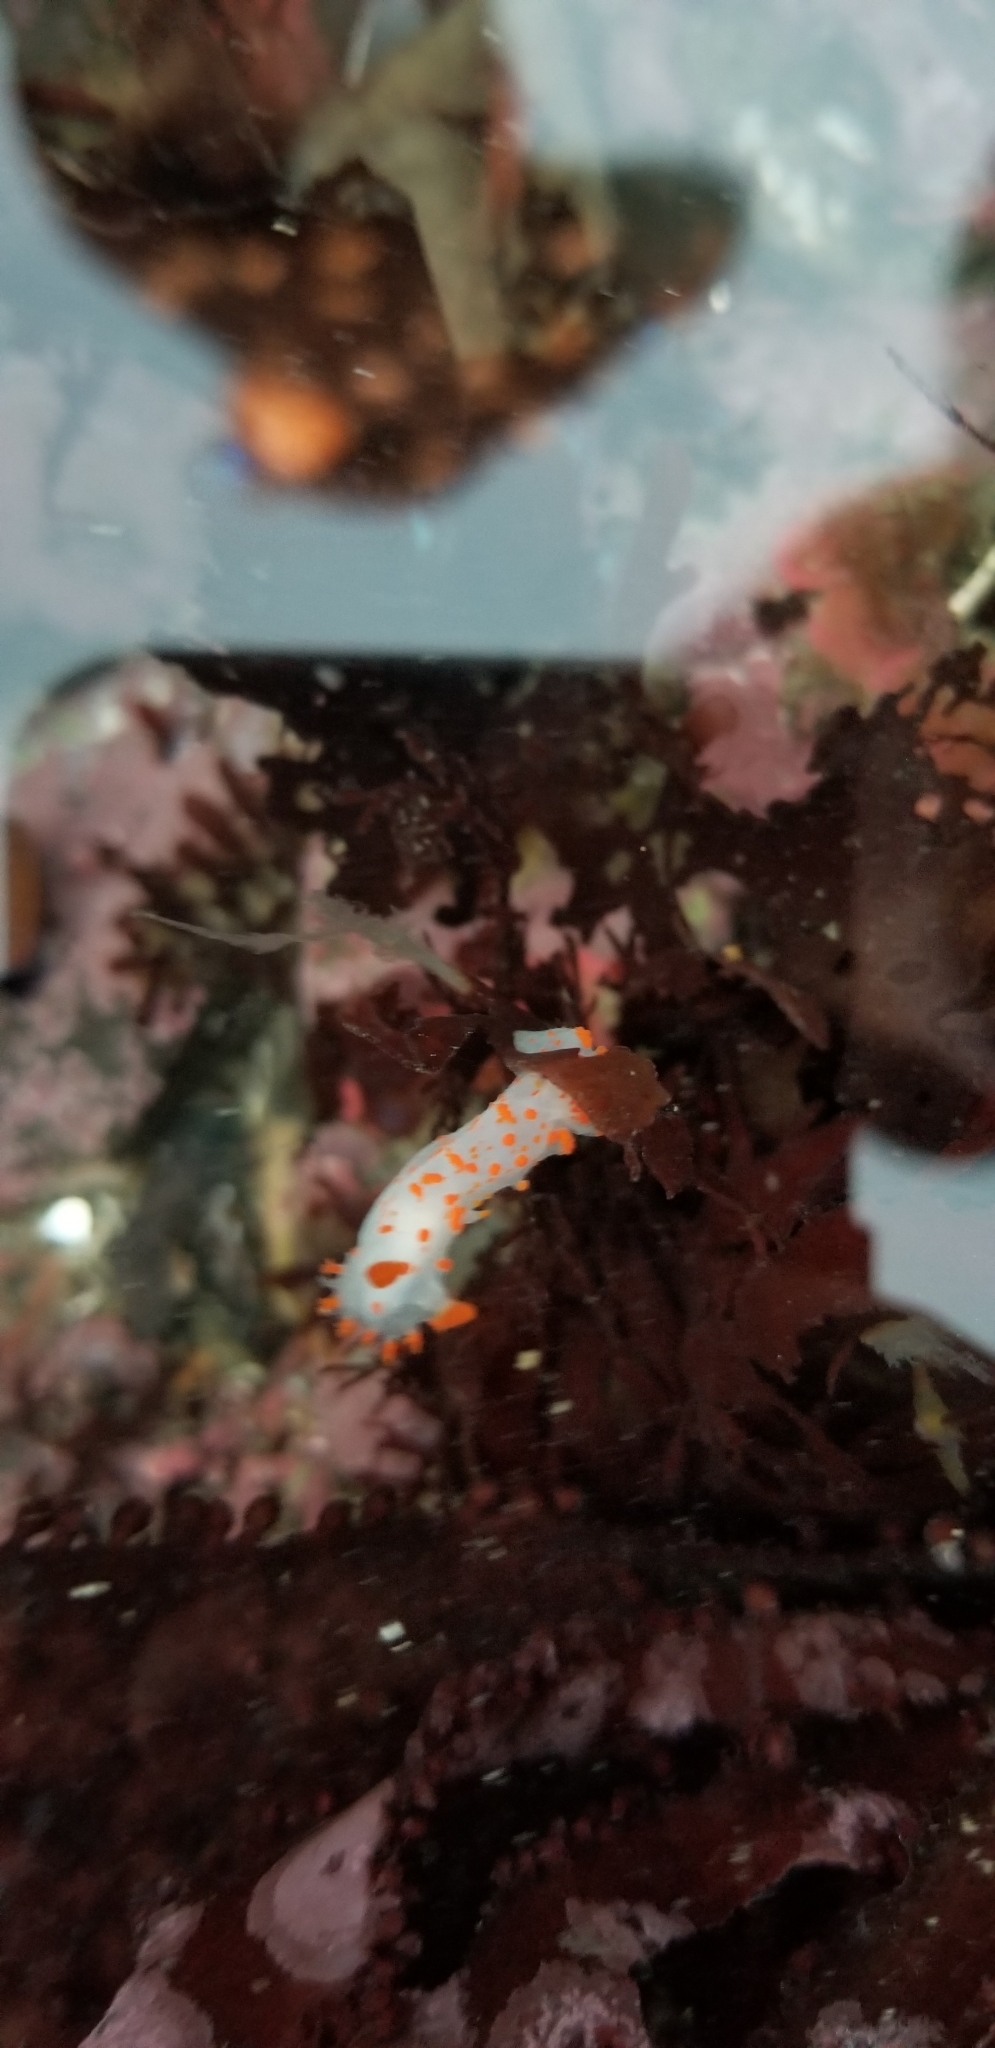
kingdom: Animalia
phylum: Mollusca
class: Gastropoda
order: Nudibranchia
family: Polyceridae
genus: Triopha
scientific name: Triopha catalinae
